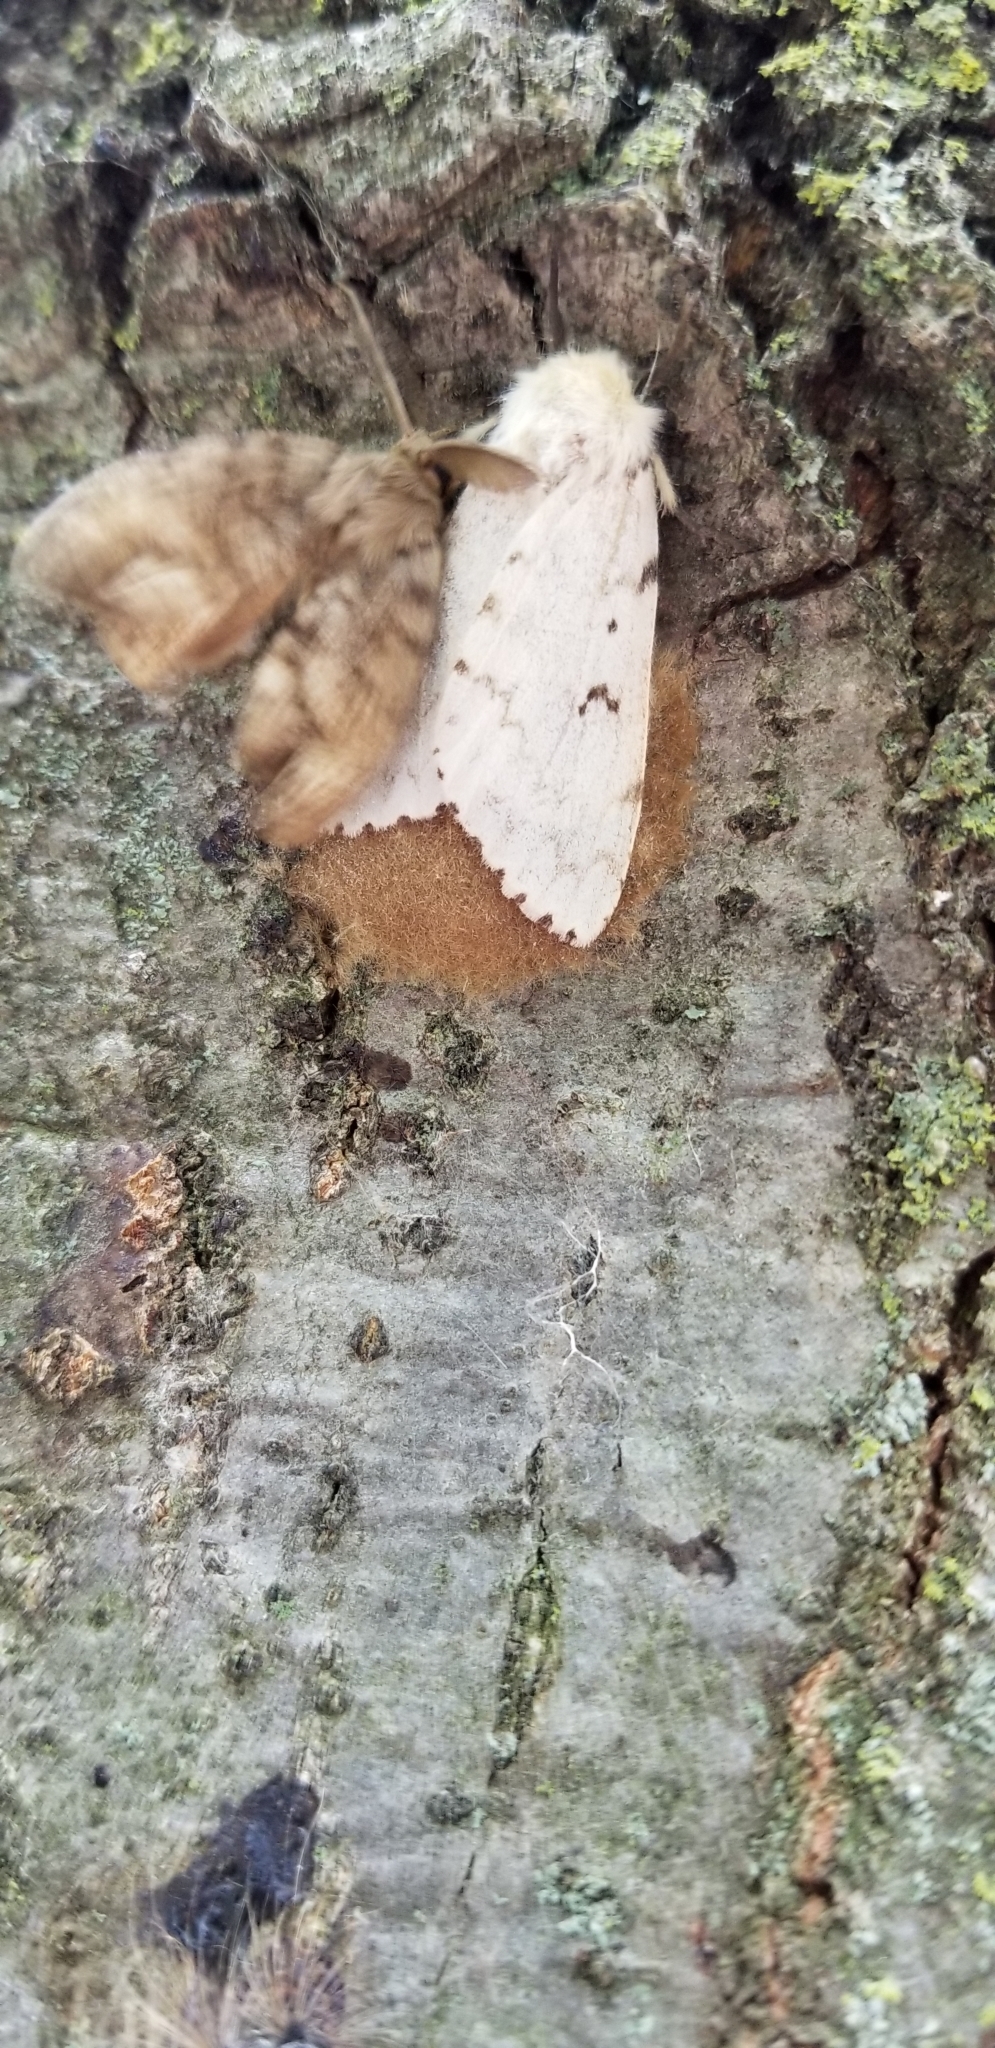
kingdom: Animalia
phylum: Arthropoda
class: Insecta
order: Lepidoptera
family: Erebidae
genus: Lymantria
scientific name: Lymantria dispar
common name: Gypsy moth
